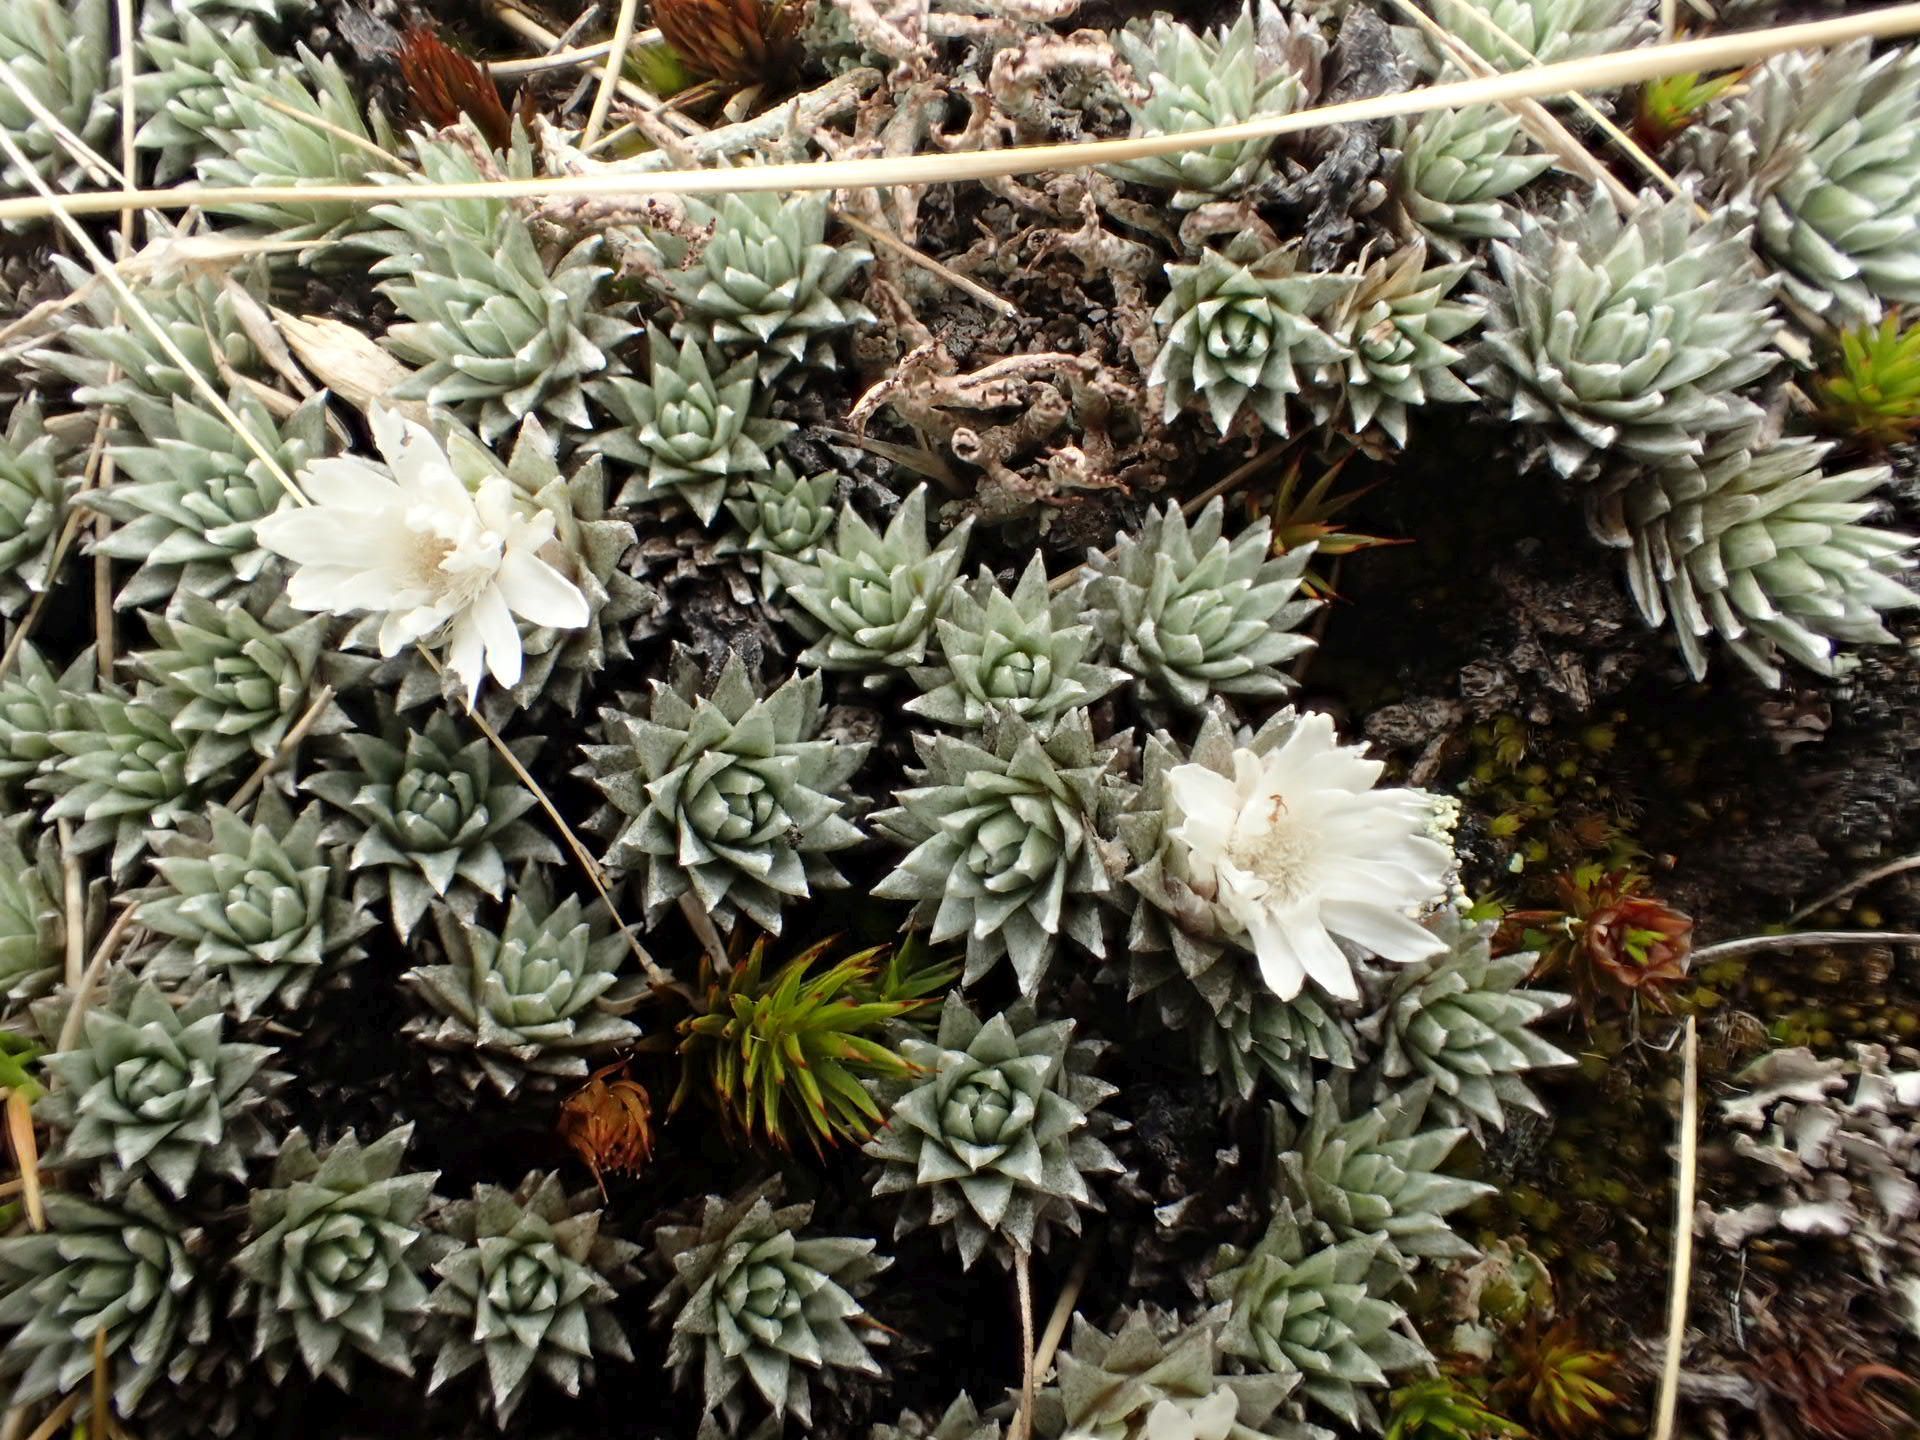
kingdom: Plantae
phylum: Tracheophyta
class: Magnoliopsida
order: Asterales
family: Asteraceae
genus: Raoulia
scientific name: Raoulia grandiflora
